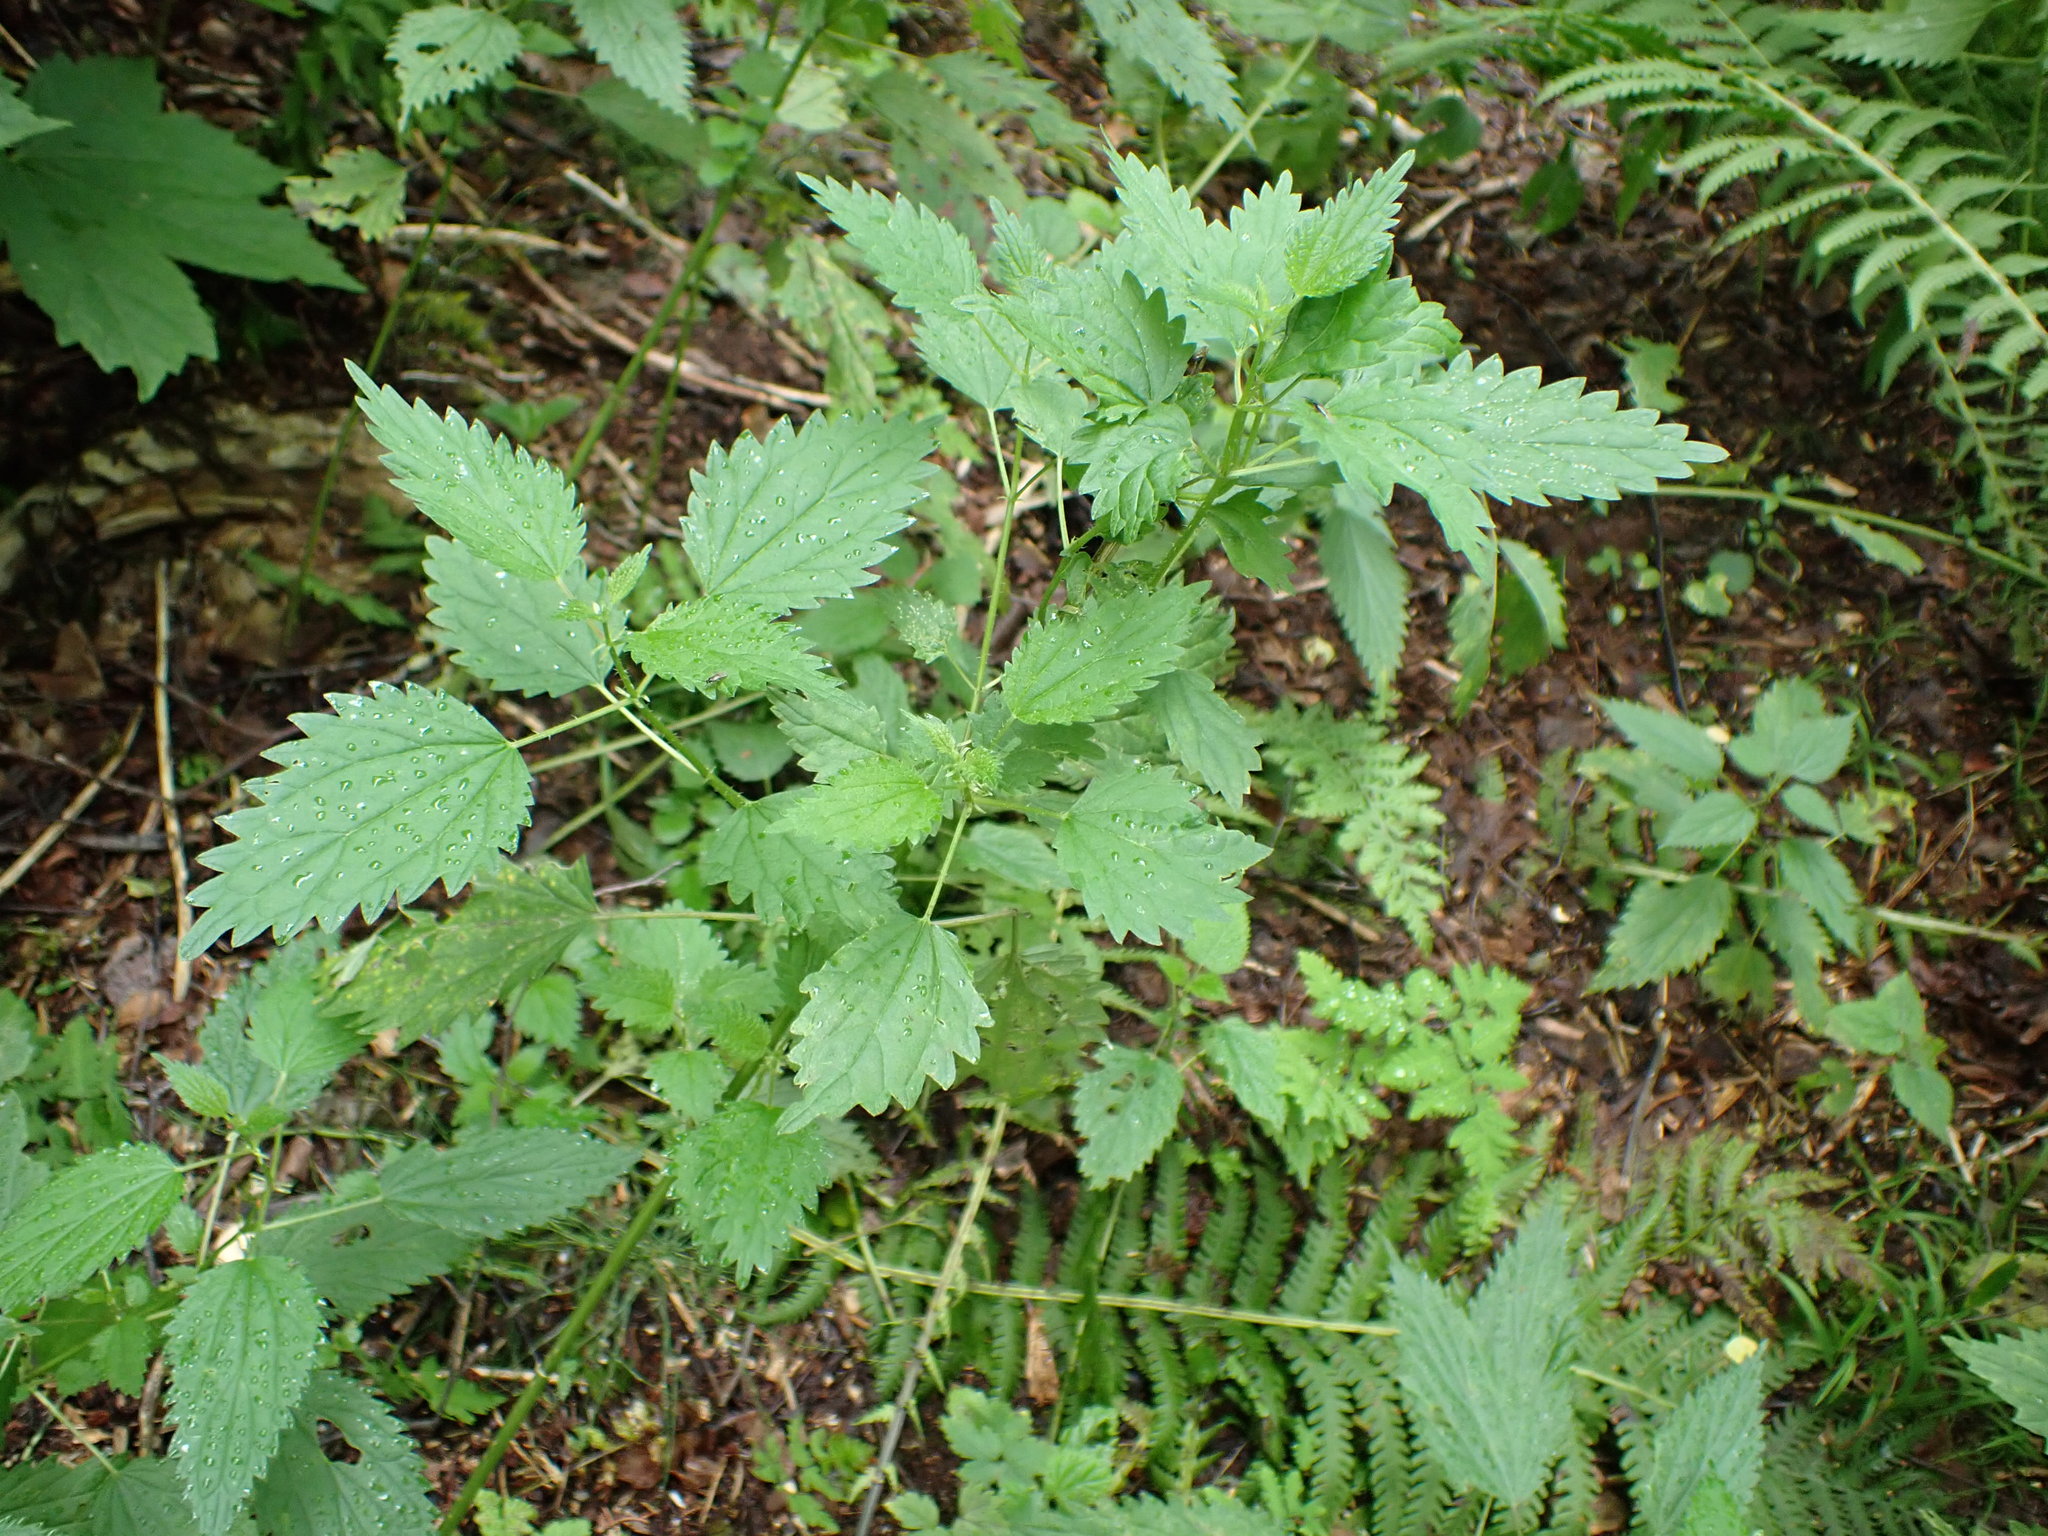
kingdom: Plantae
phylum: Tracheophyta
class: Magnoliopsida
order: Rosales
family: Urticaceae
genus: Urtica
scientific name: Urtica dioica
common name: Common nettle
